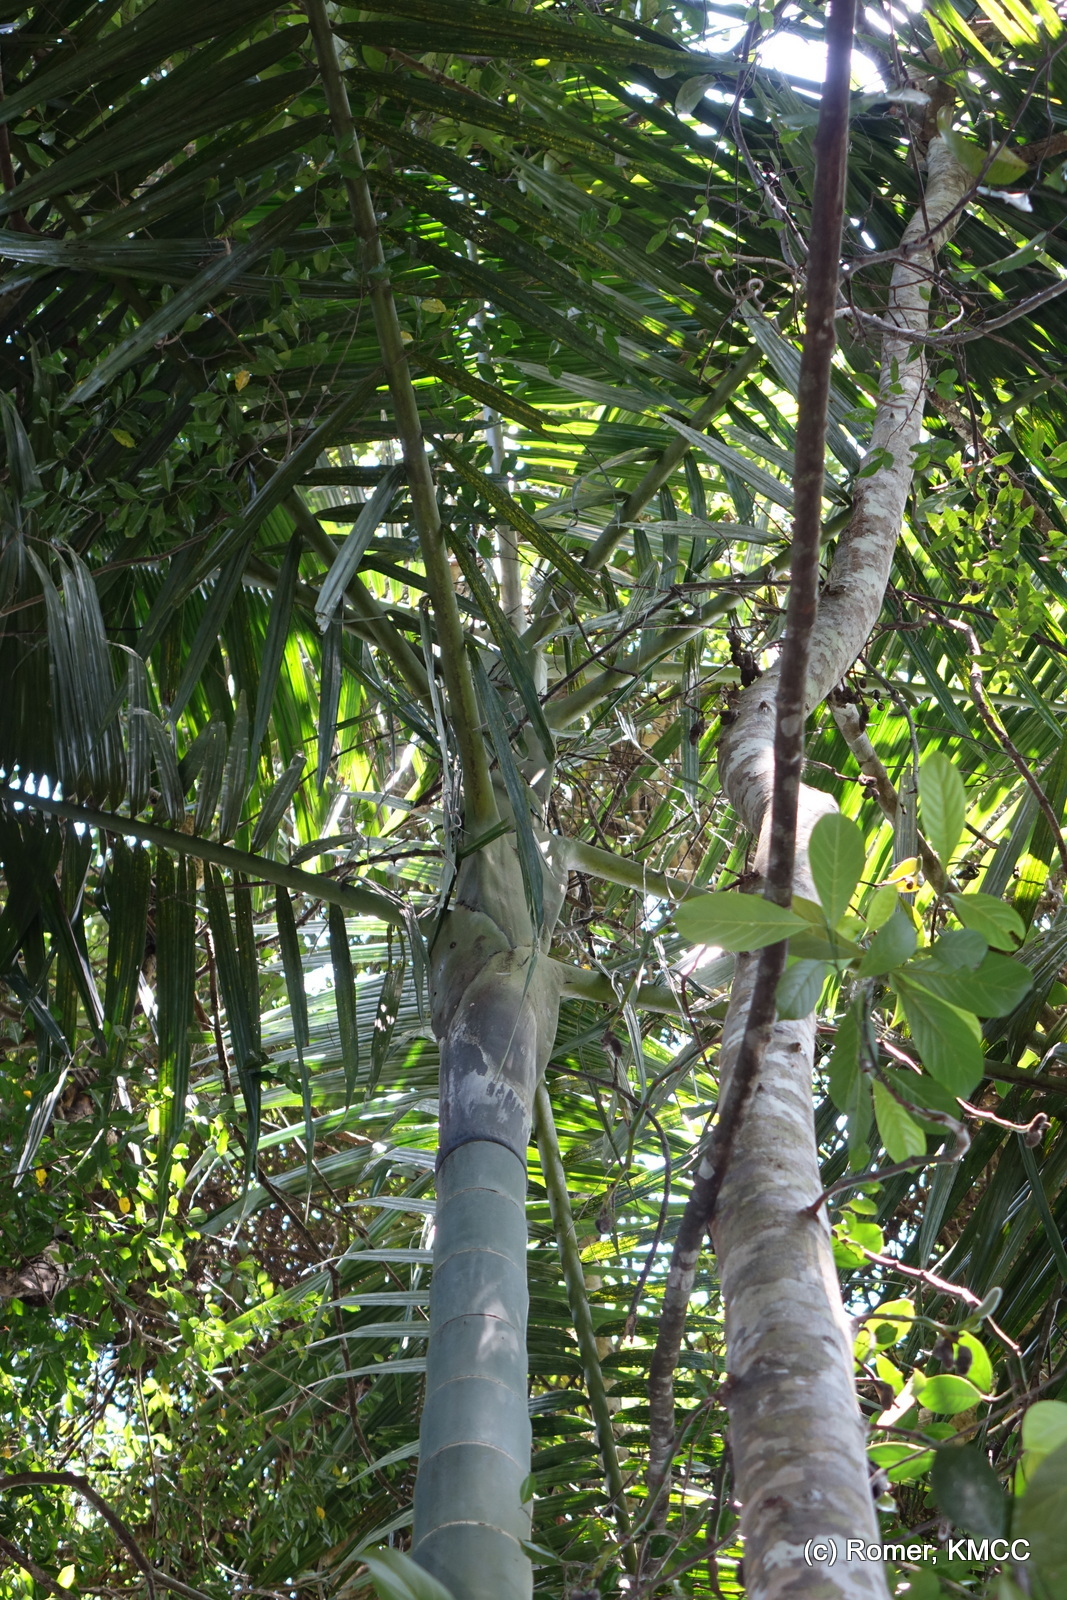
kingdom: Plantae
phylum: Tracheophyta
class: Liliopsida
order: Arecales
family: Arecaceae
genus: Dypsis
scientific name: Dypsis ifanadianae
